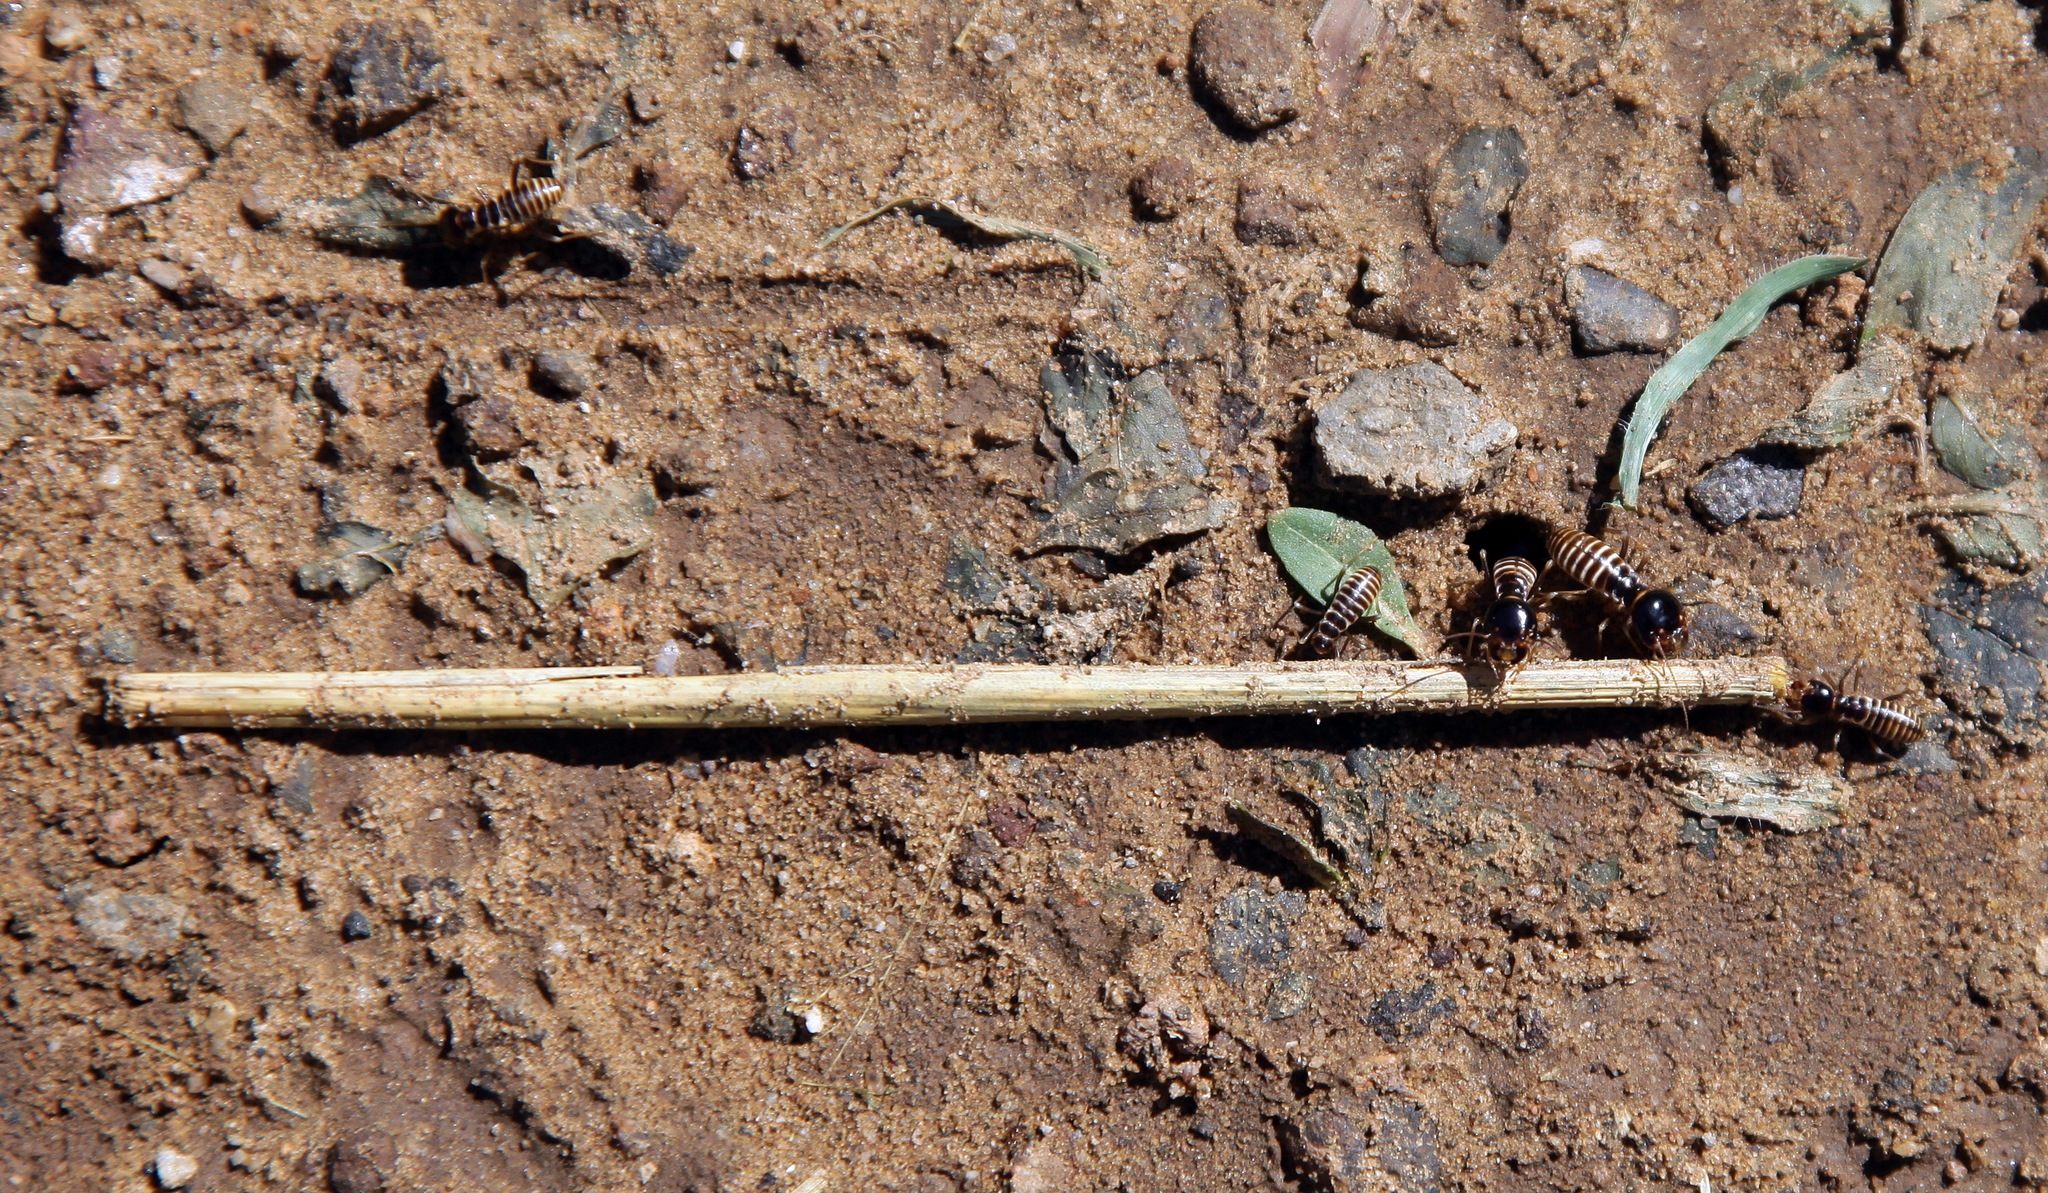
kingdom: Animalia
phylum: Arthropoda
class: Insecta
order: Blattodea
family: Hodotermitidae
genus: Hodotermes
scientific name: Hodotermes mossambicus
